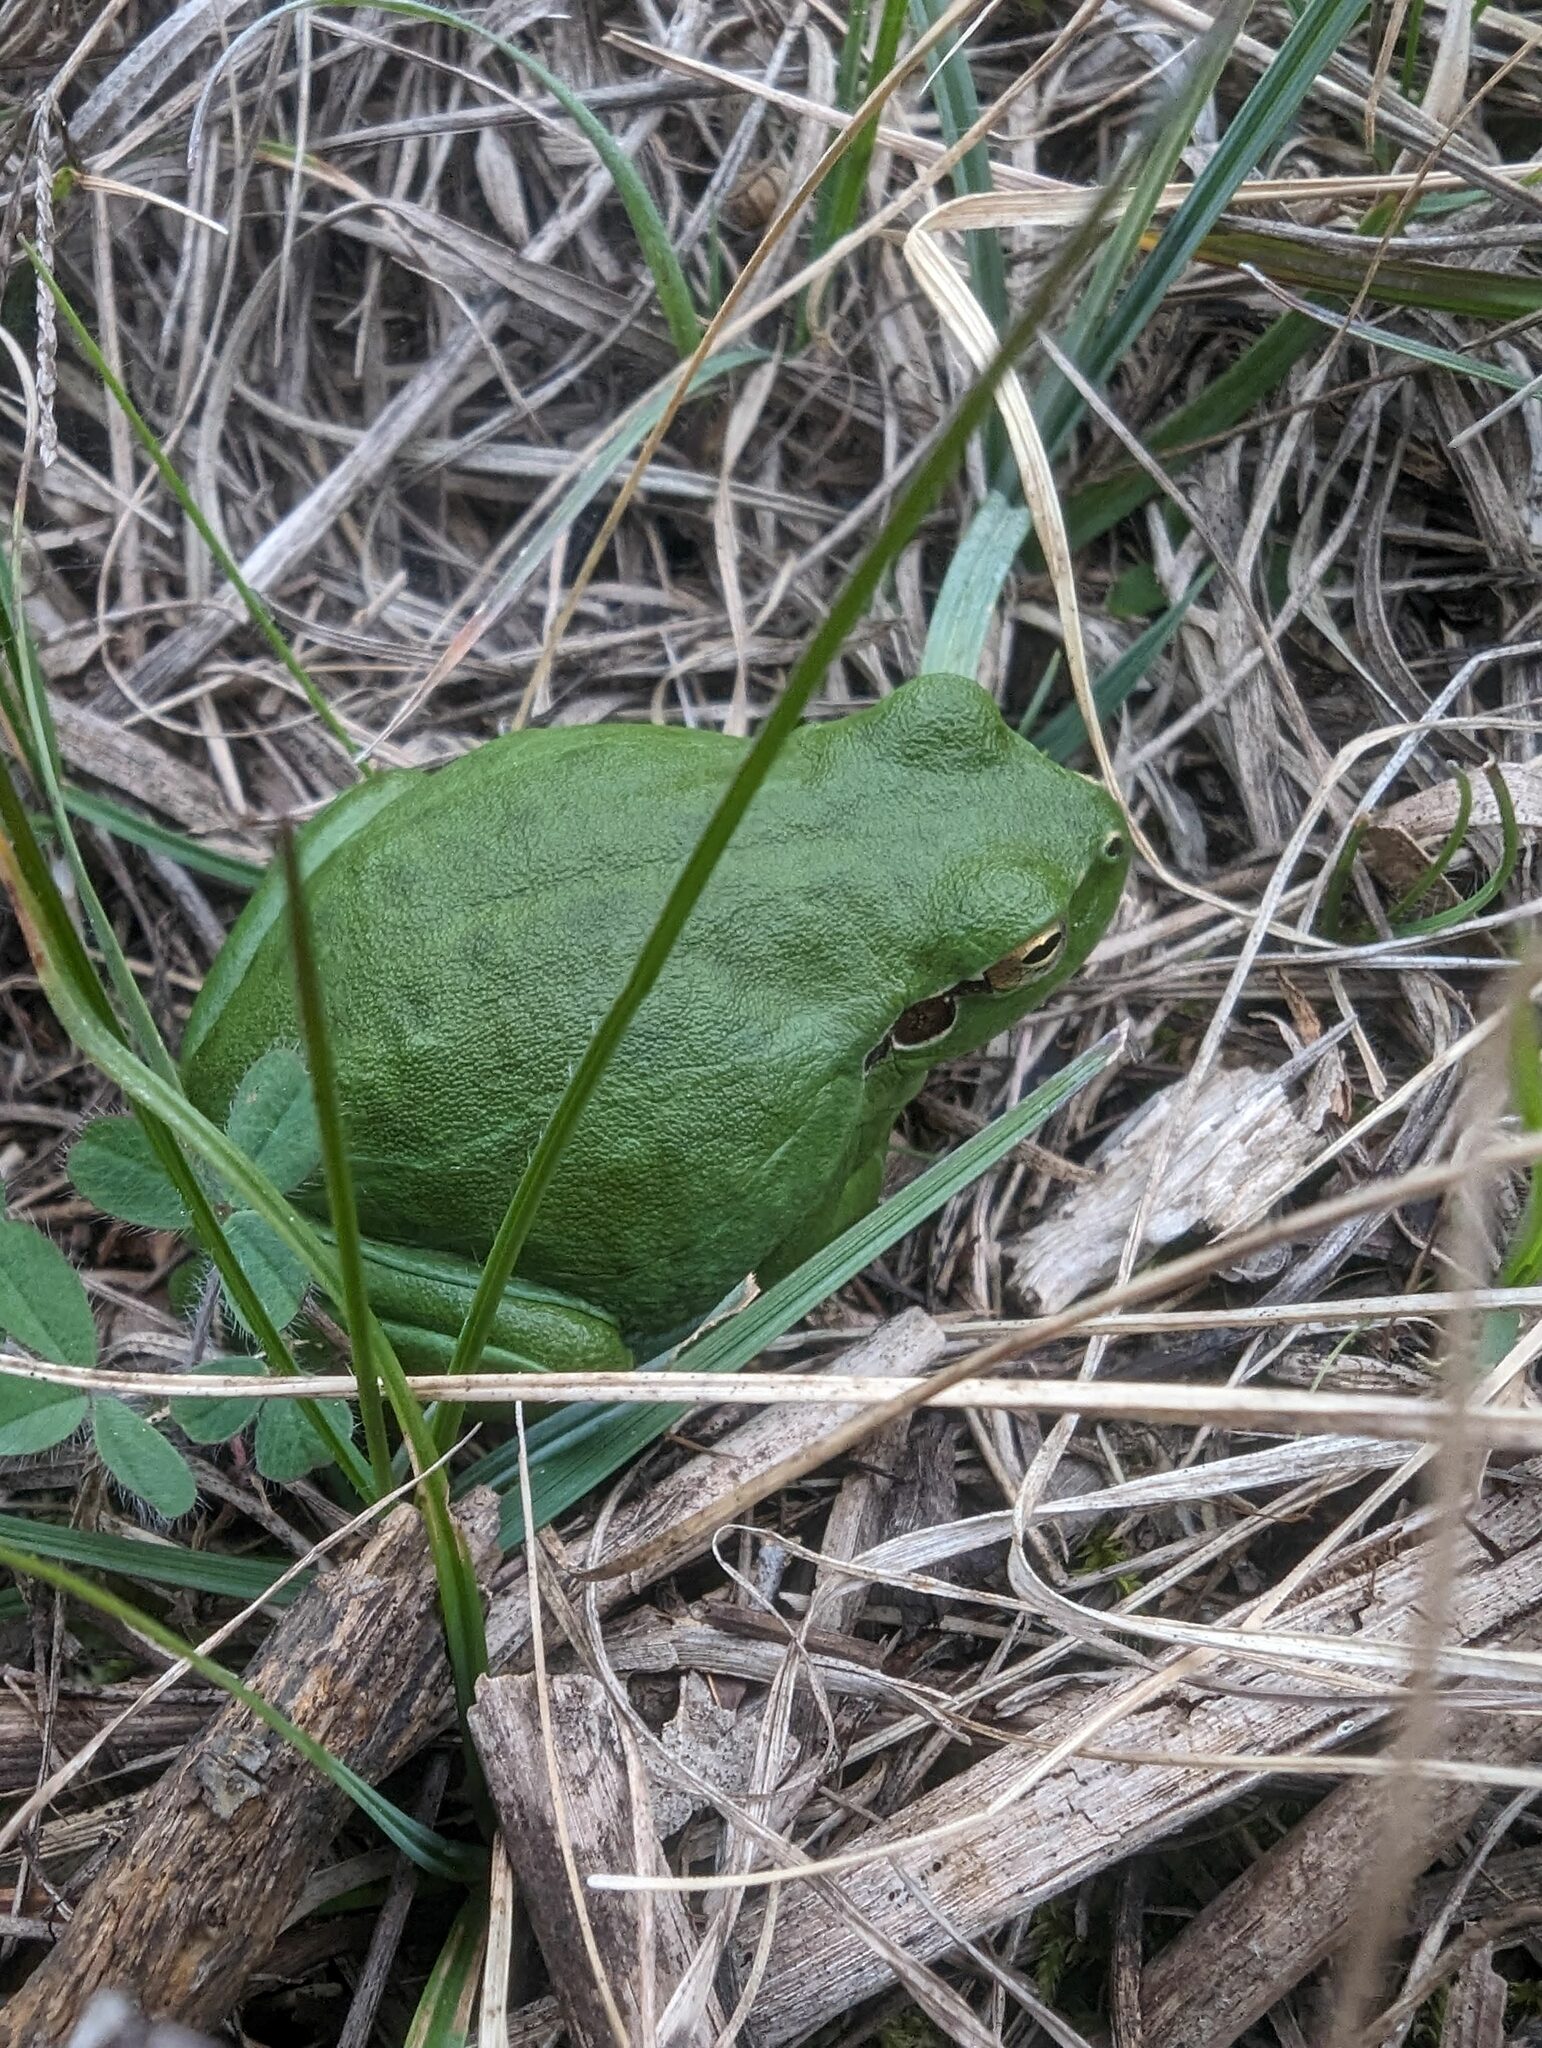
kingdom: Animalia
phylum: Chordata
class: Amphibia
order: Anura
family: Hylidae
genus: Hyla
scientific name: Hyla meridionalis
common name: Stripeless tree frog
